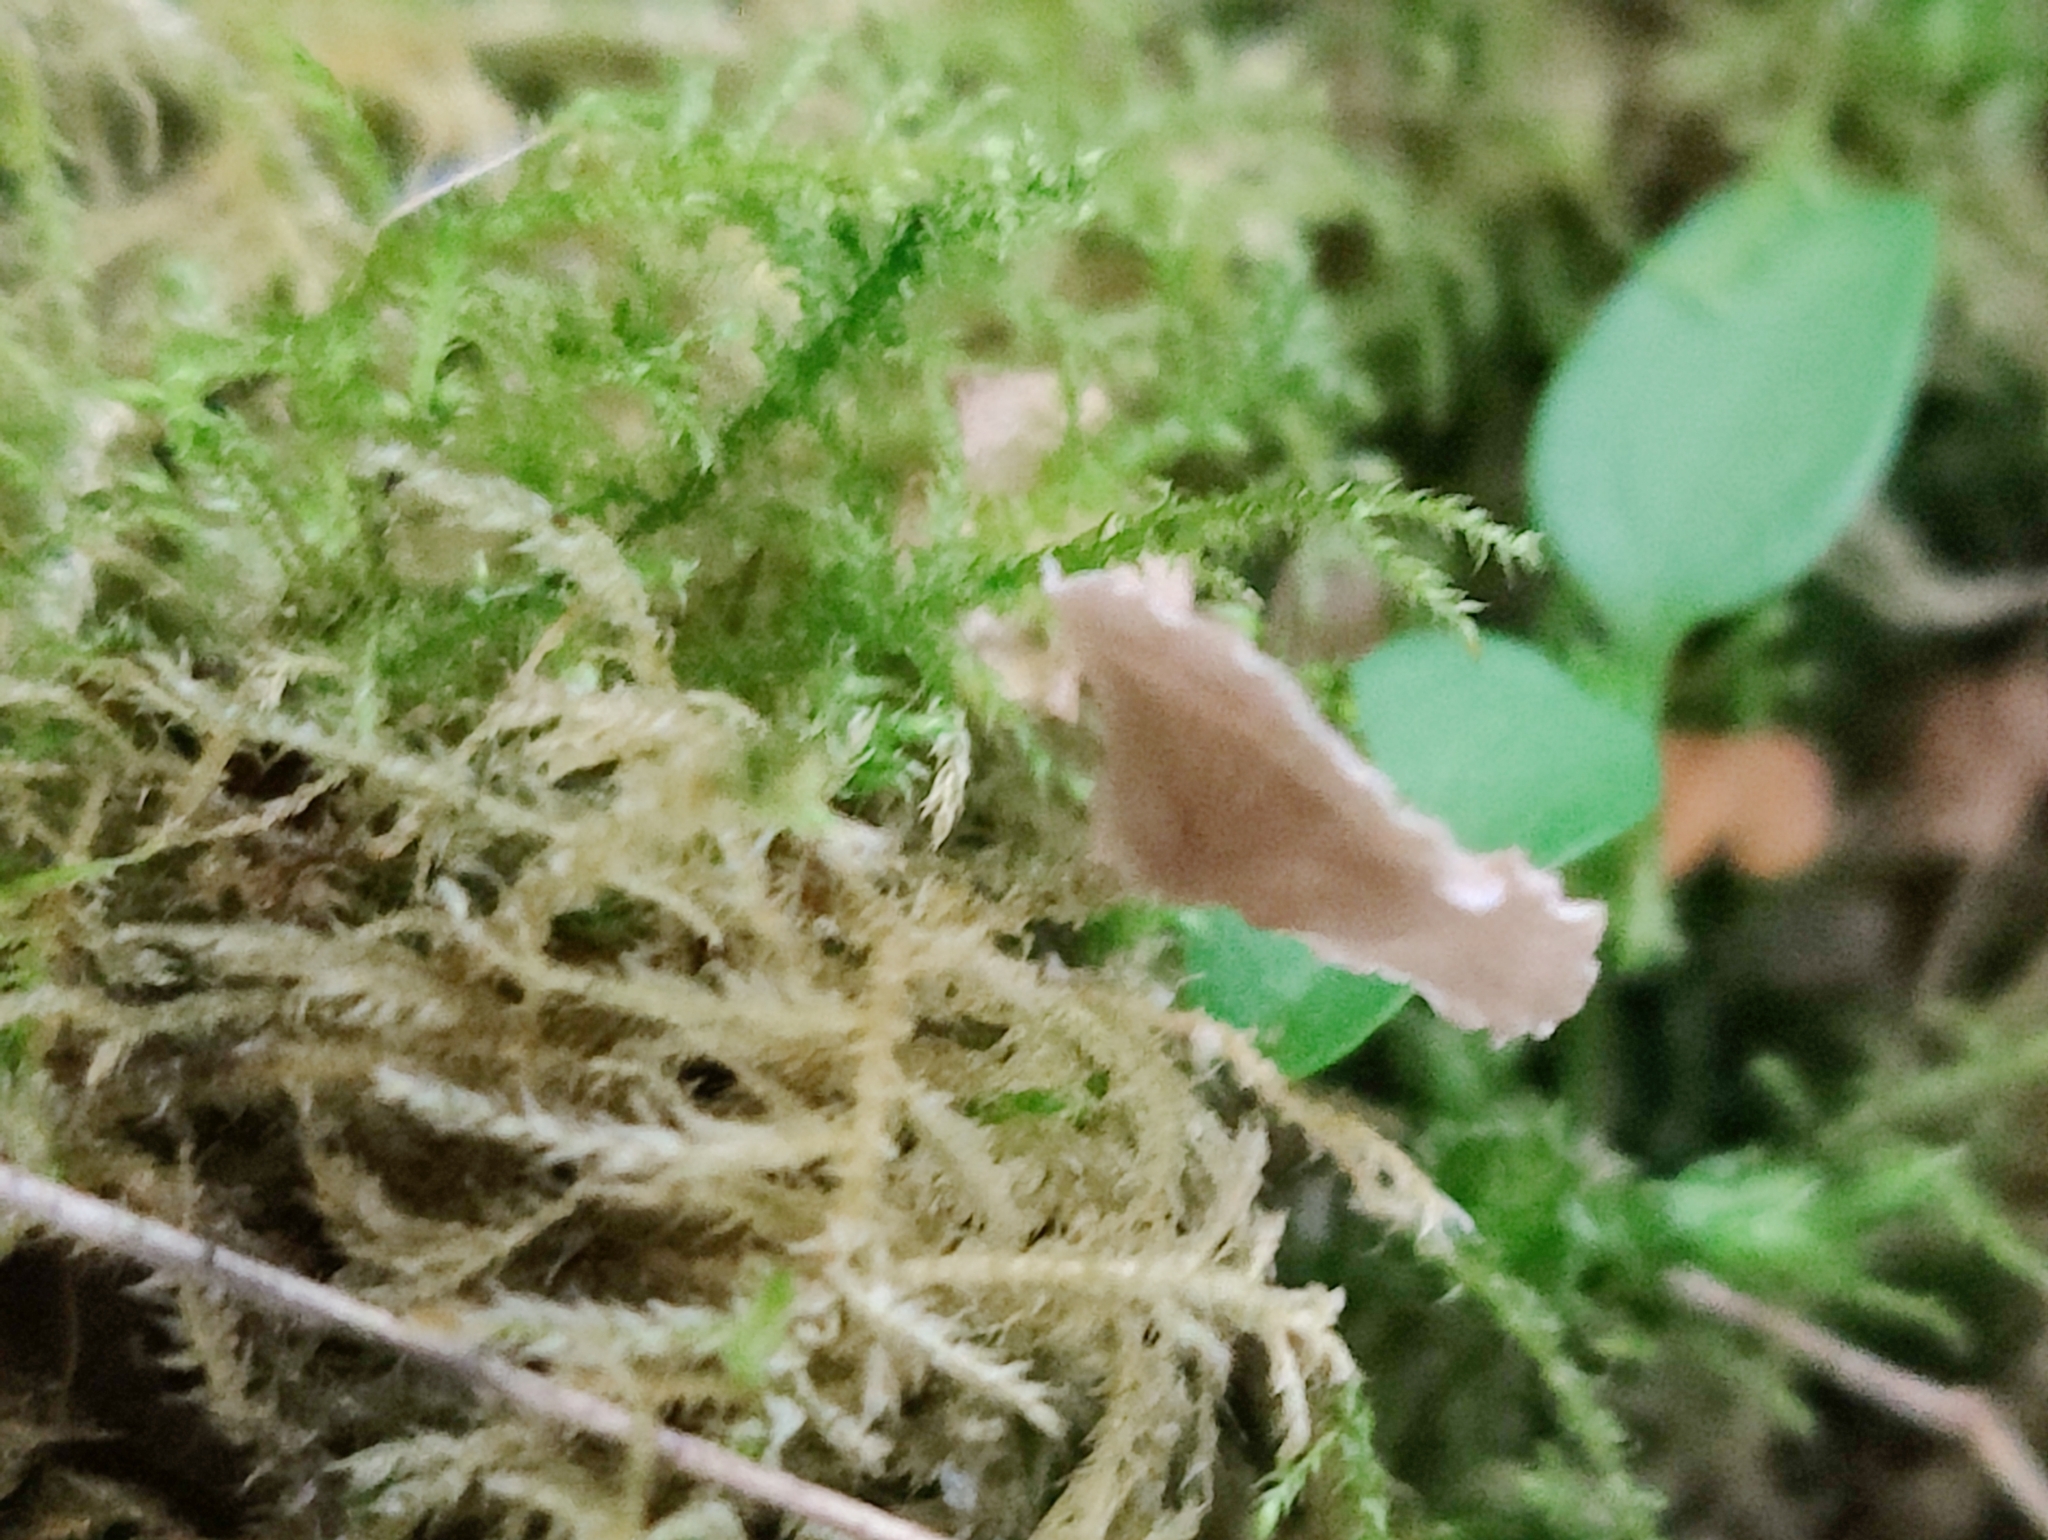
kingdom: Fungi
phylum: Basidiomycota
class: Agaricomycetes
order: Agaricales
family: Hygrophoraceae
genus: Arrhenia
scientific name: Arrhenia retiruga
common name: Small moss oysterling
